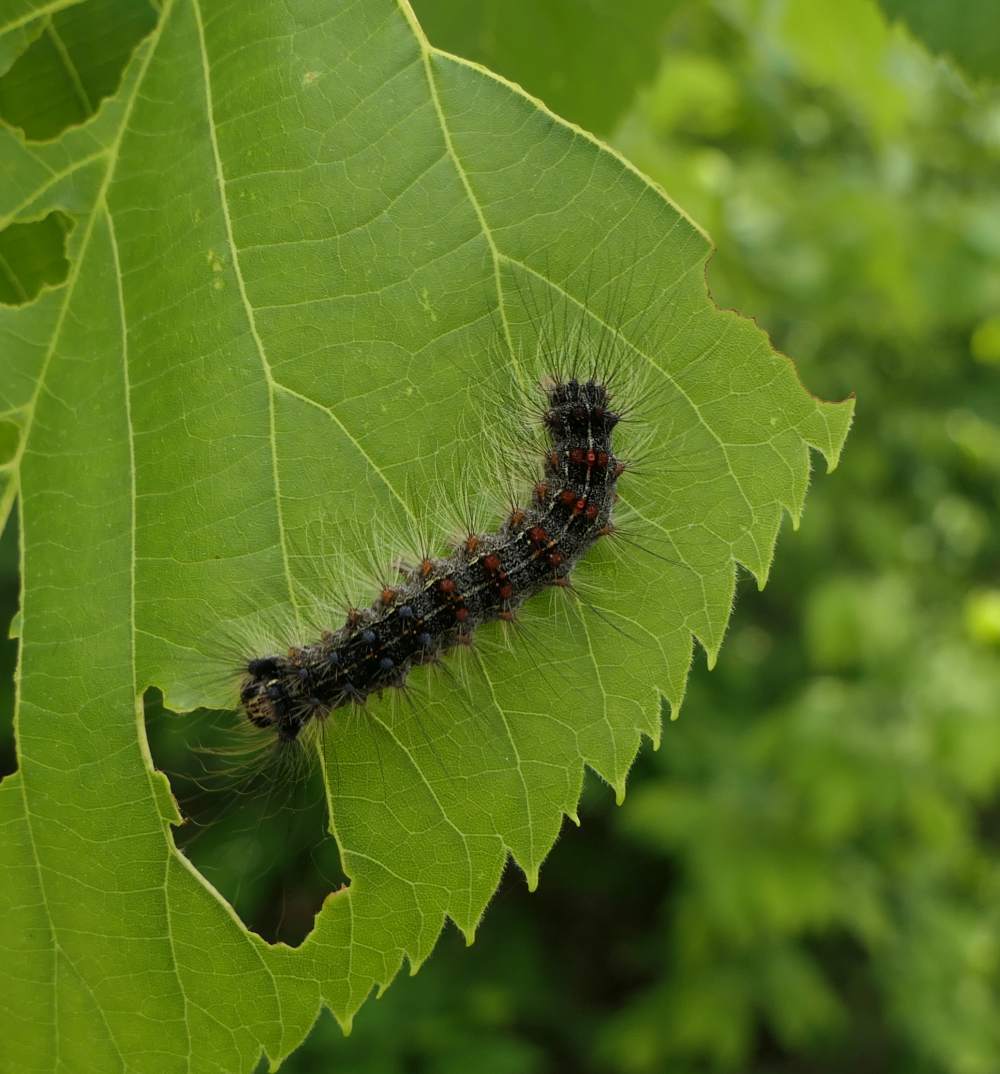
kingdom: Animalia
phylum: Arthropoda
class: Insecta
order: Lepidoptera
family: Erebidae
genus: Lymantria
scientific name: Lymantria dispar
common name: Gypsy moth
